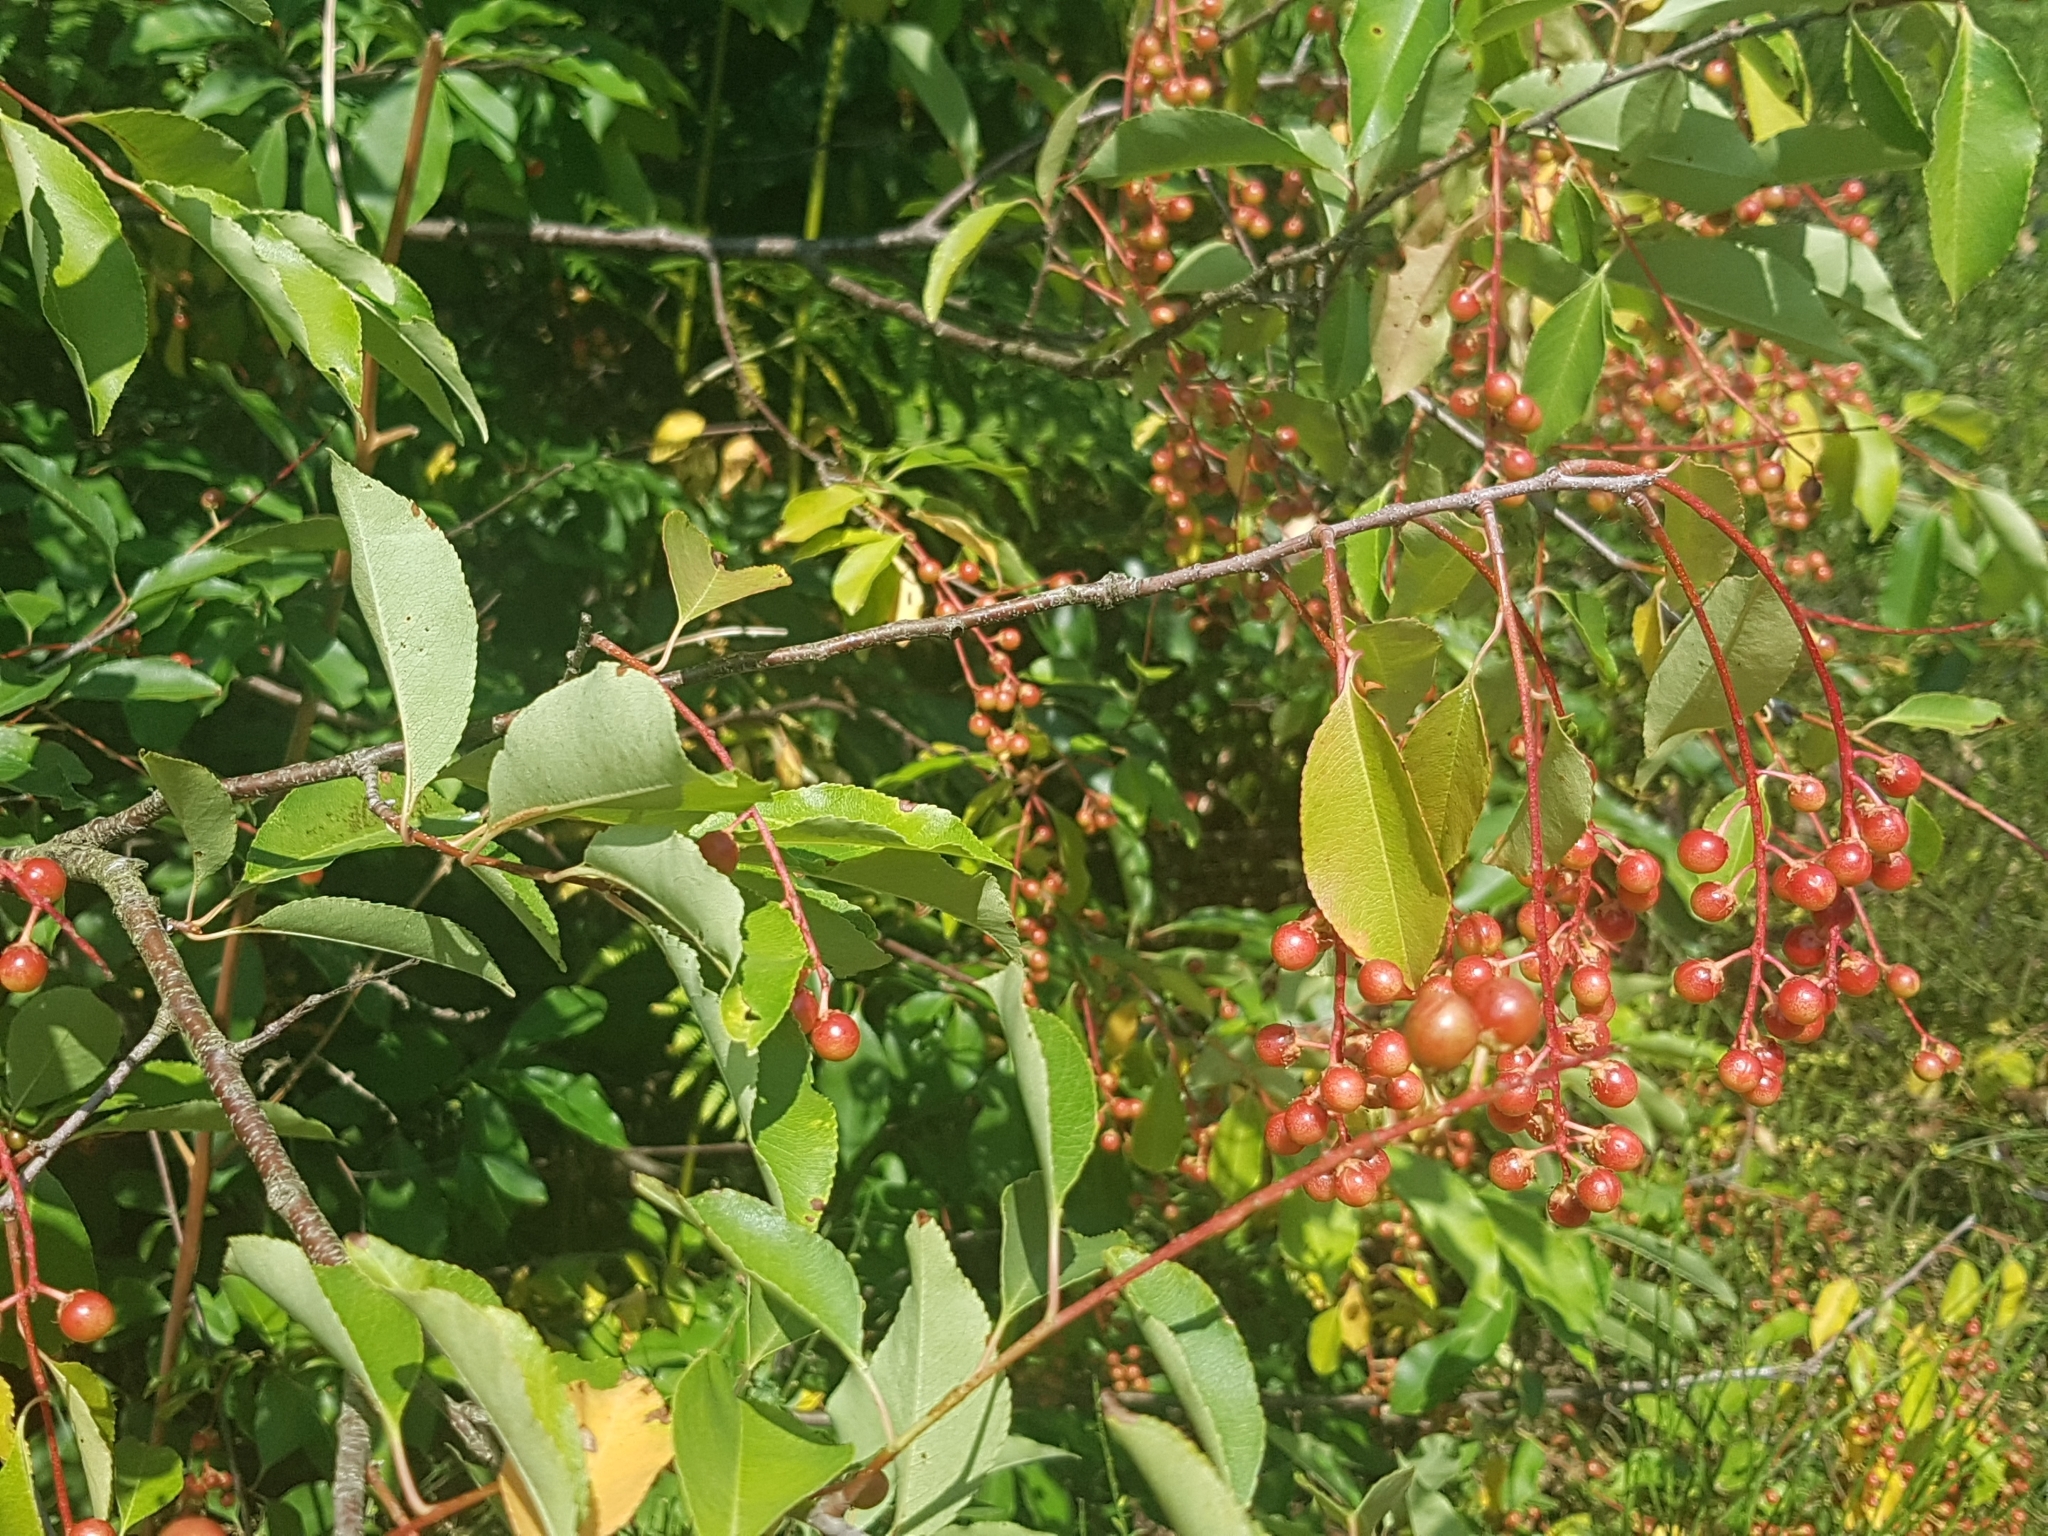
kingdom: Plantae
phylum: Tracheophyta
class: Magnoliopsida
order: Rosales
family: Rosaceae
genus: Prunus
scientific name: Prunus serotina
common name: Black cherry
